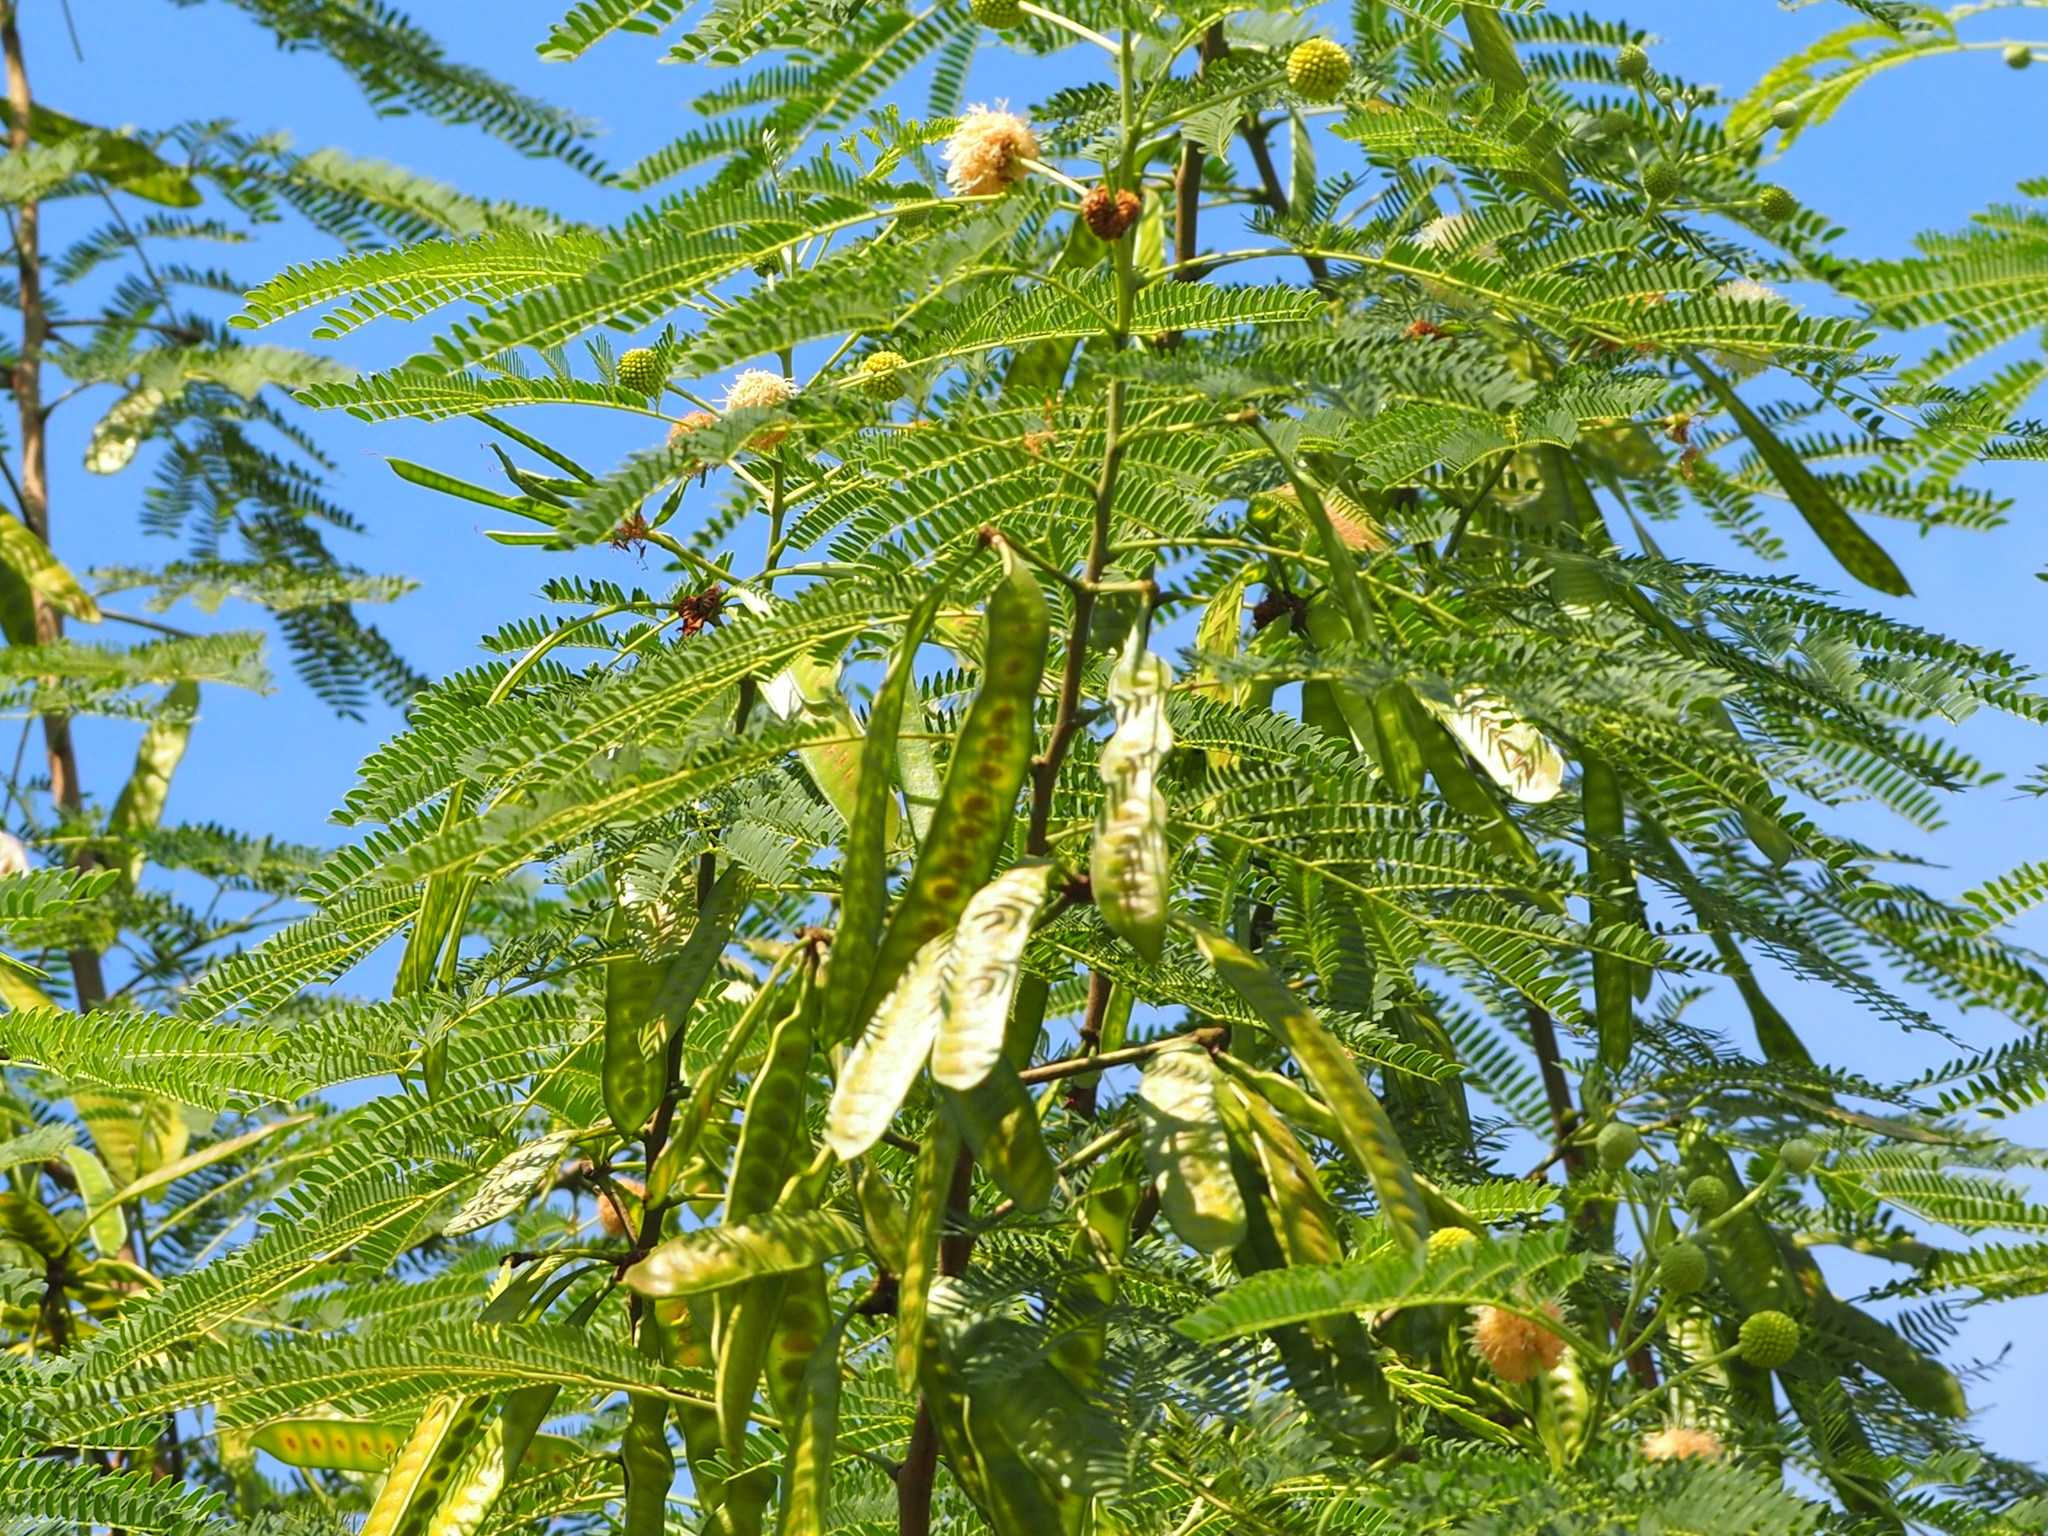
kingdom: Plantae
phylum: Tracheophyta
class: Magnoliopsida
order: Fabales
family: Fabaceae
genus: Leucaena
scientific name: Leucaena leucocephala
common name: White leadtree
